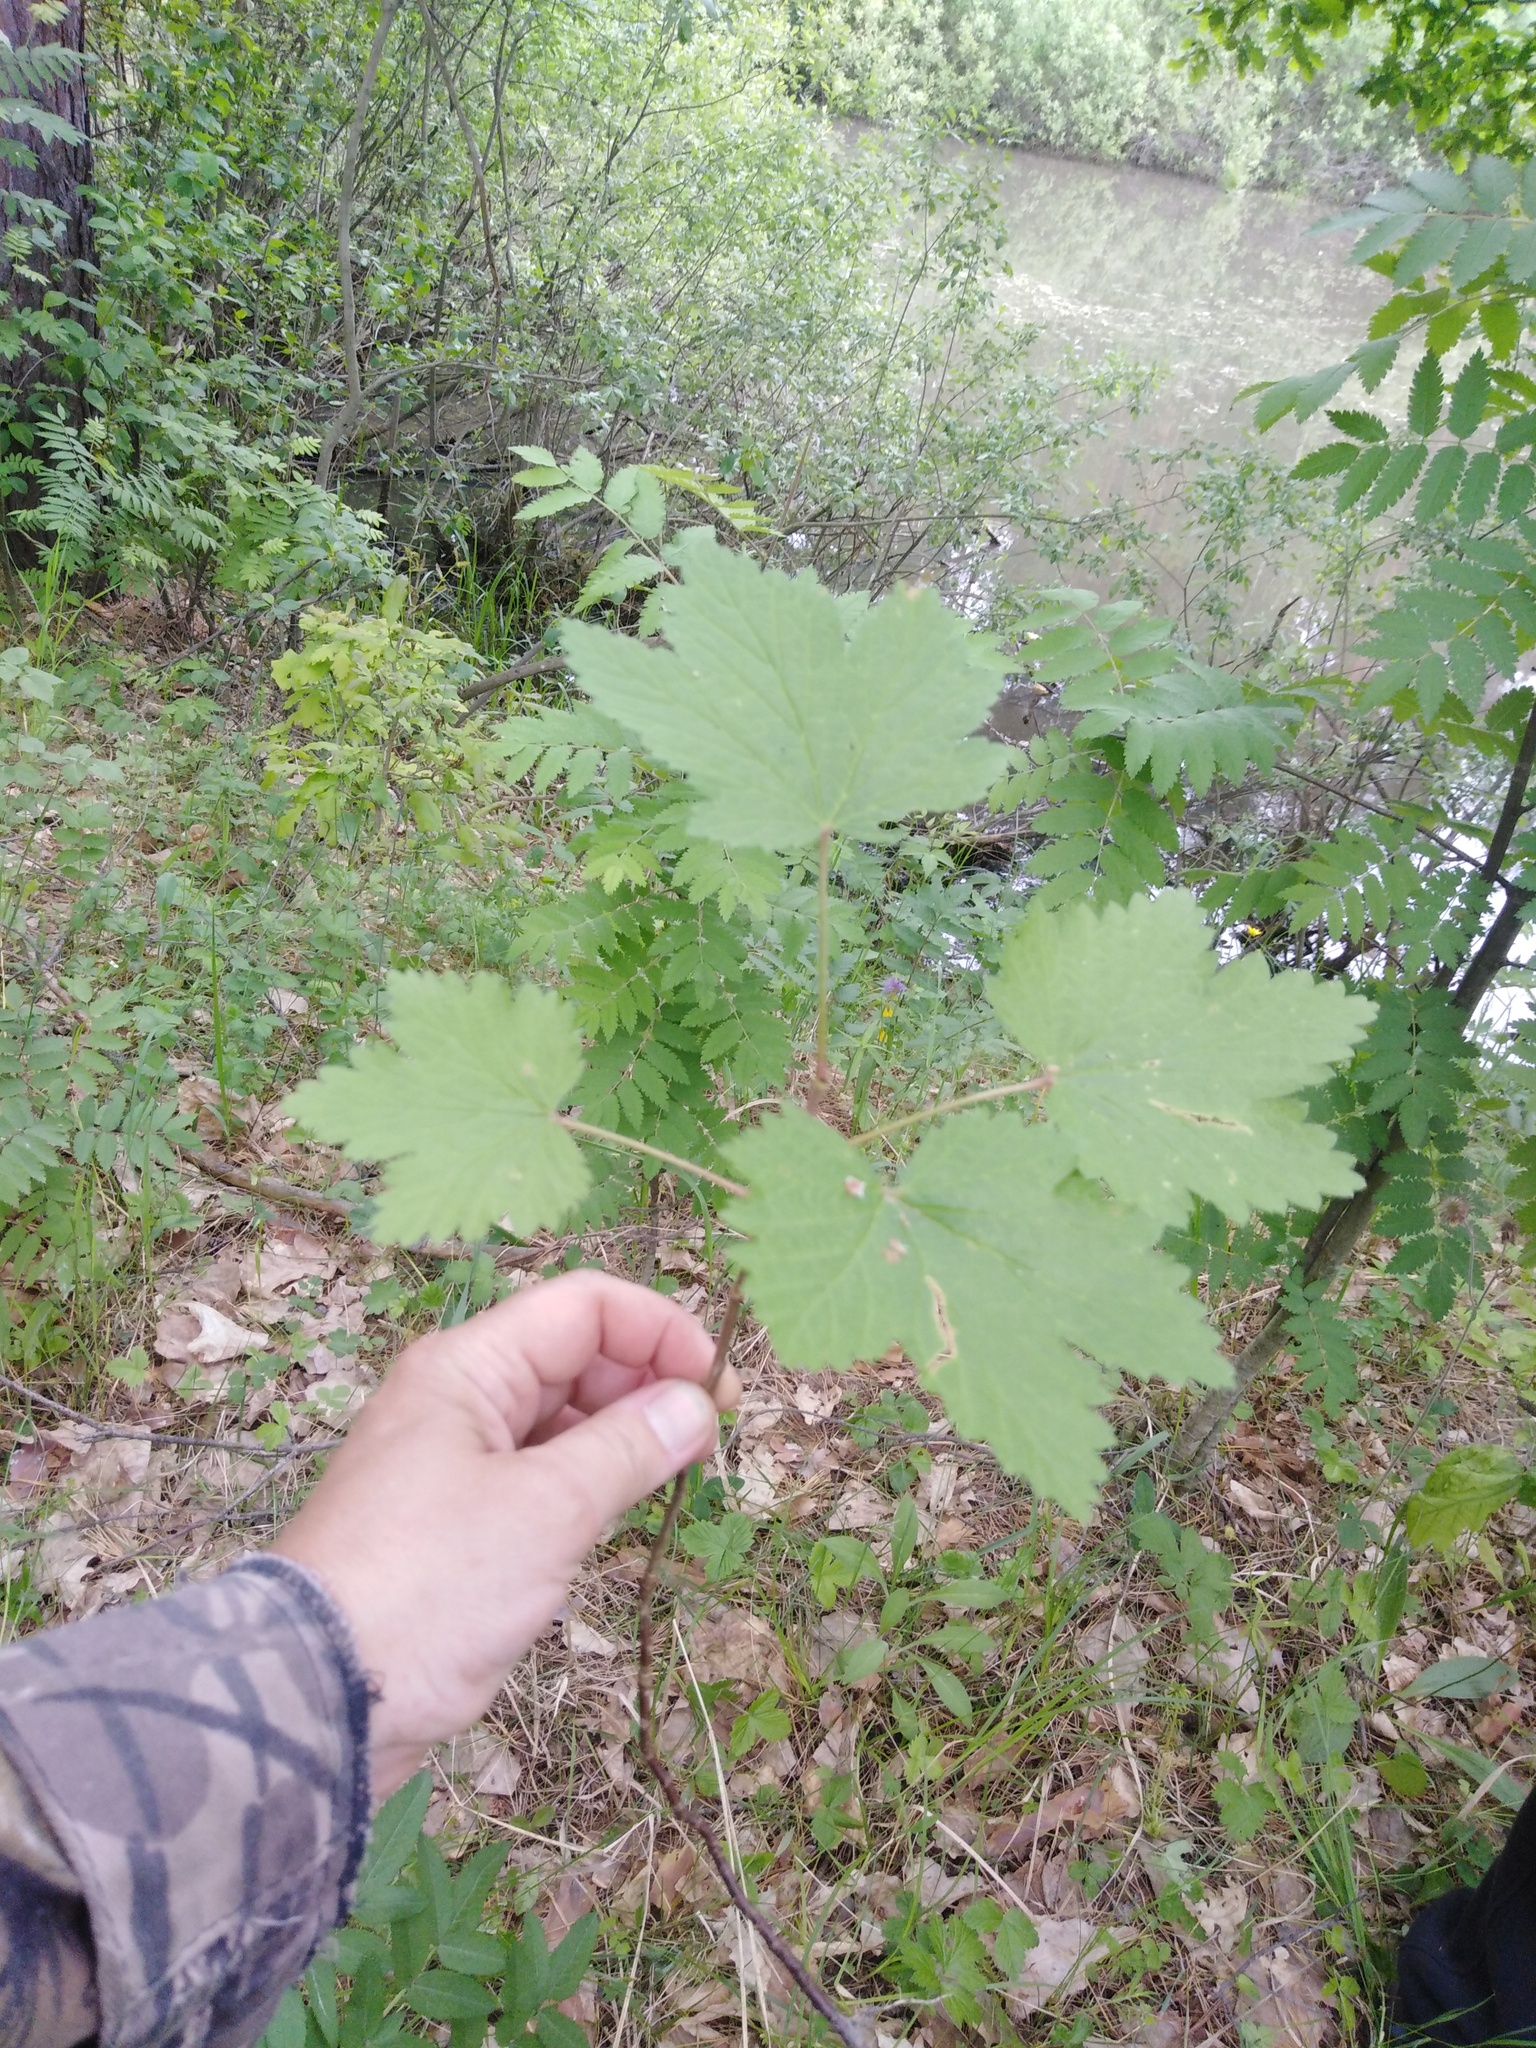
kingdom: Plantae
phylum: Tracheophyta
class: Magnoliopsida
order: Saxifragales
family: Grossulariaceae
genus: Ribes
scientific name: Ribes spicatum
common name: Downy currant
